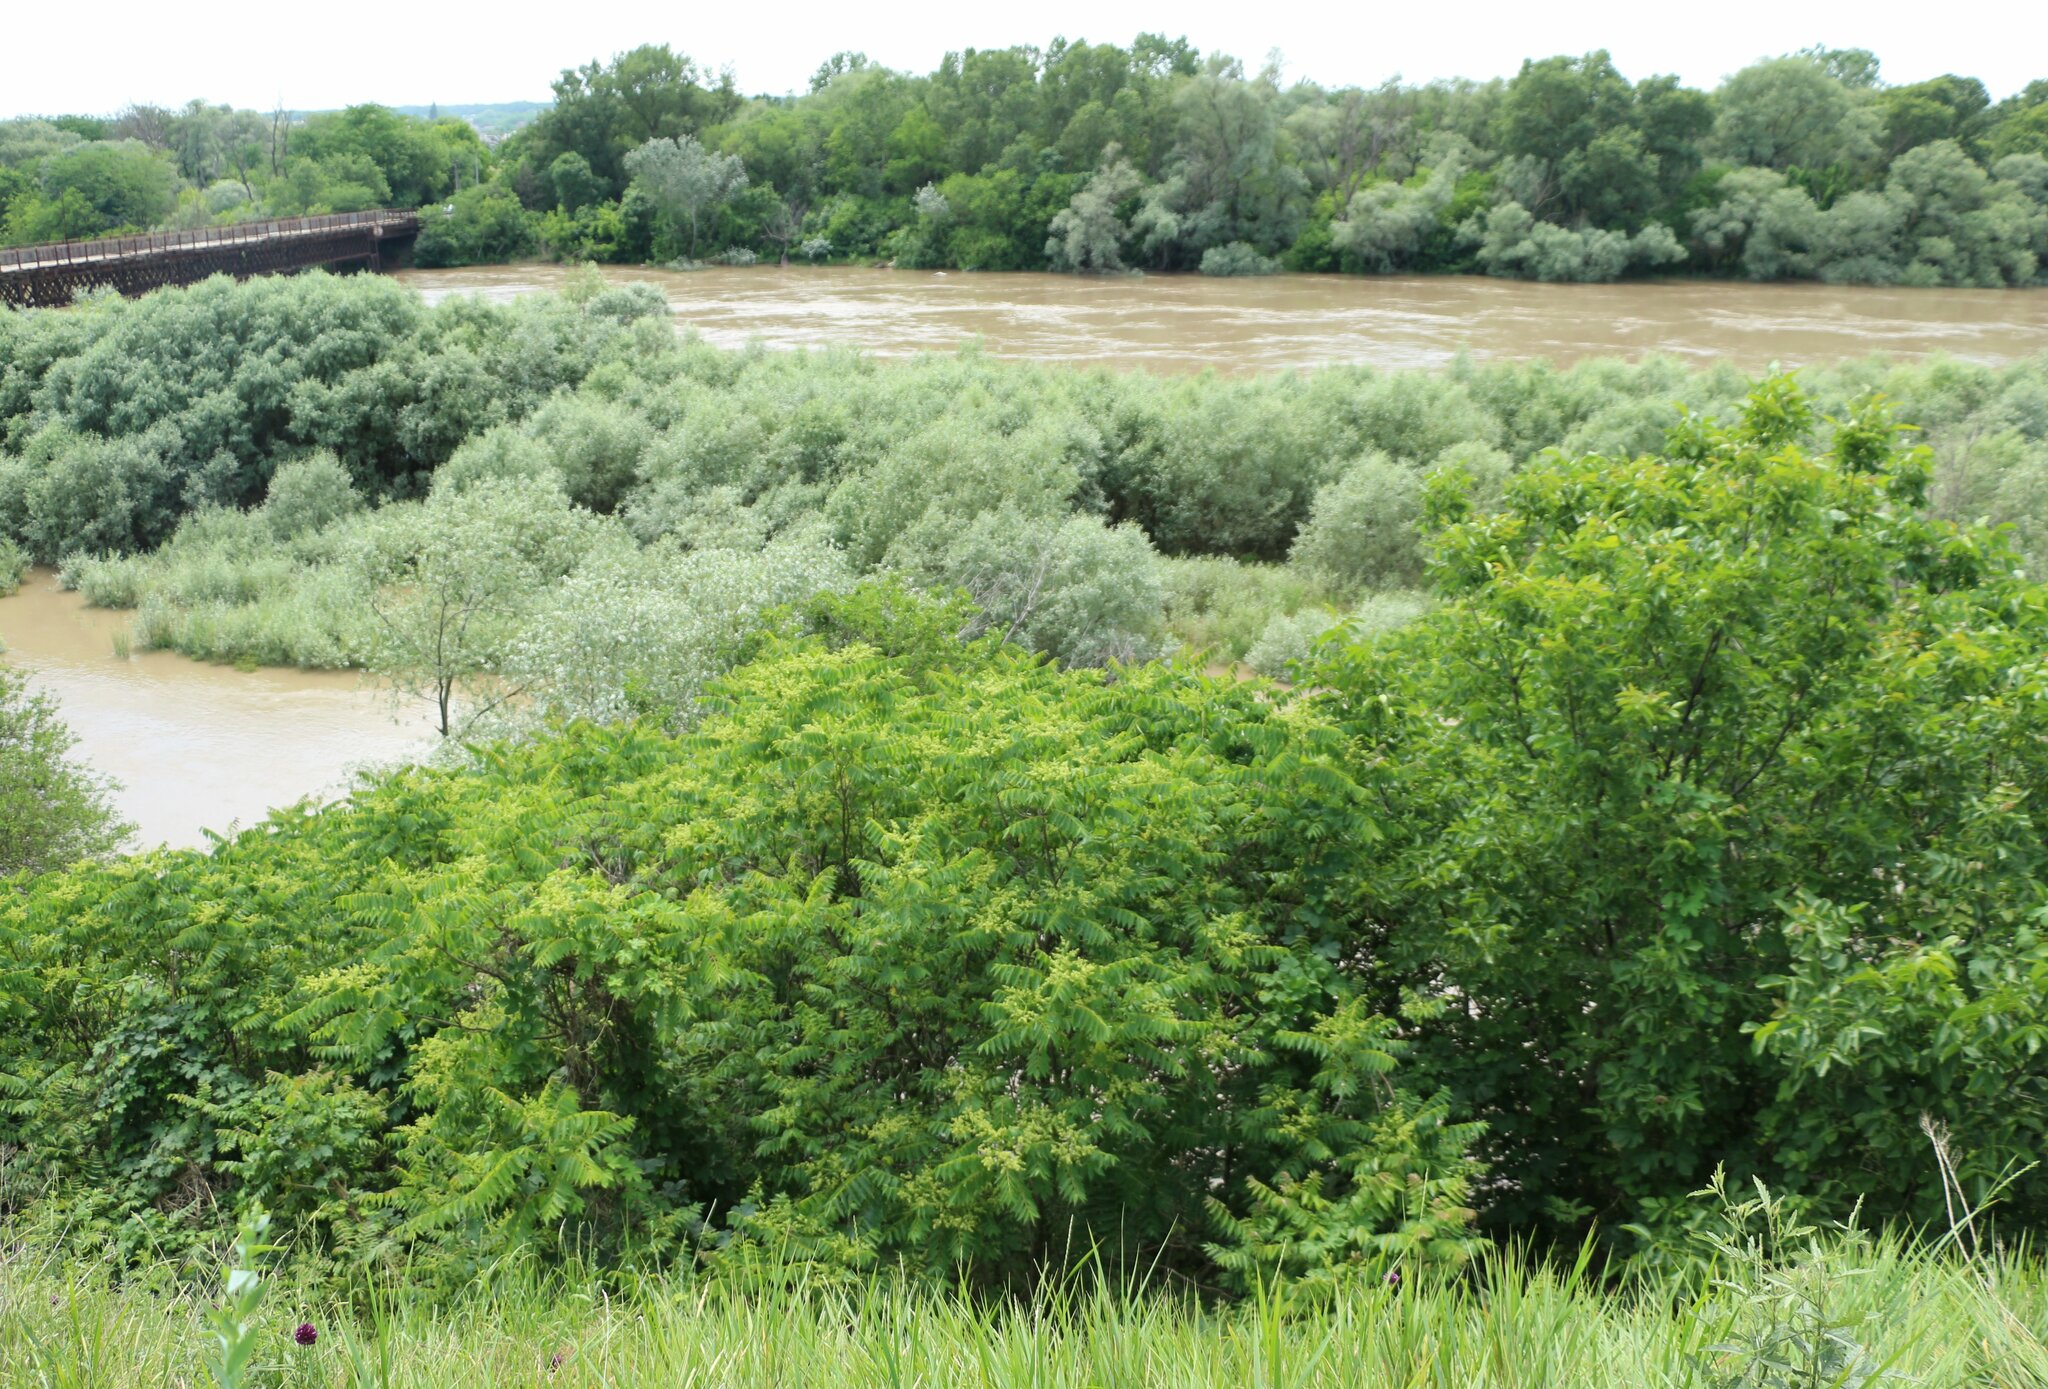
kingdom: Plantae
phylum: Tracheophyta
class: Magnoliopsida
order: Sapindales
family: Simaroubaceae
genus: Ailanthus
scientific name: Ailanthus altissima
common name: Tree-of-heaven
